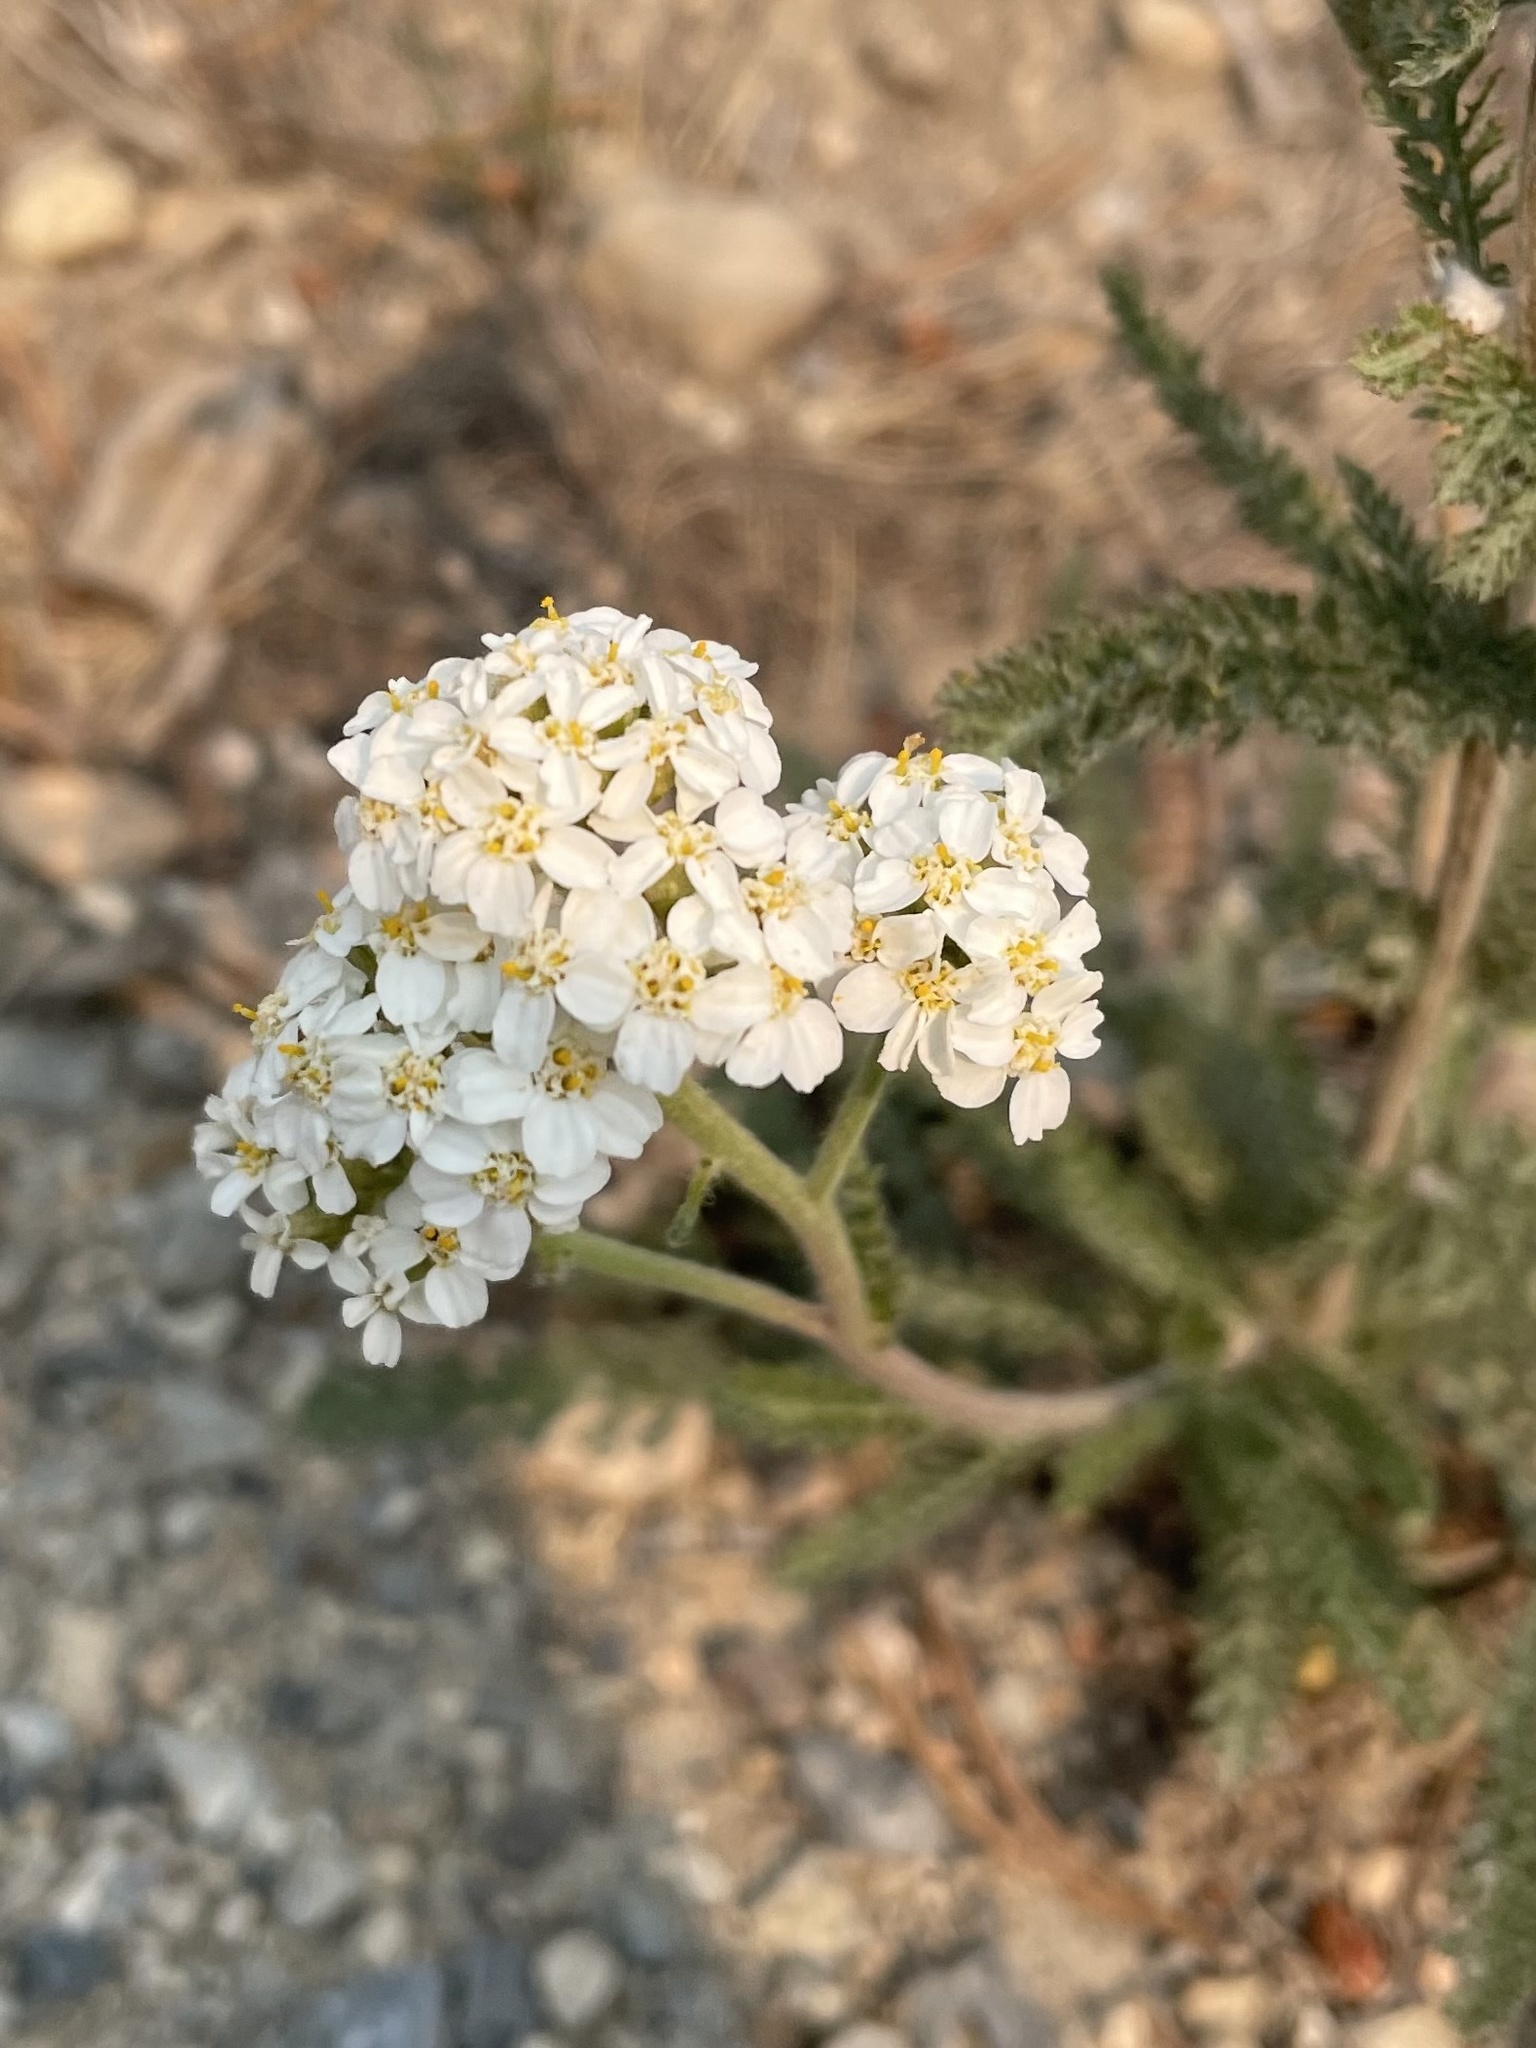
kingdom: Plantae
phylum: Tracheophyta
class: Magnoliopsida
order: Asterales
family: Asteraceae
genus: Achillea
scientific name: Achillea millefolium
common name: Yarrow
